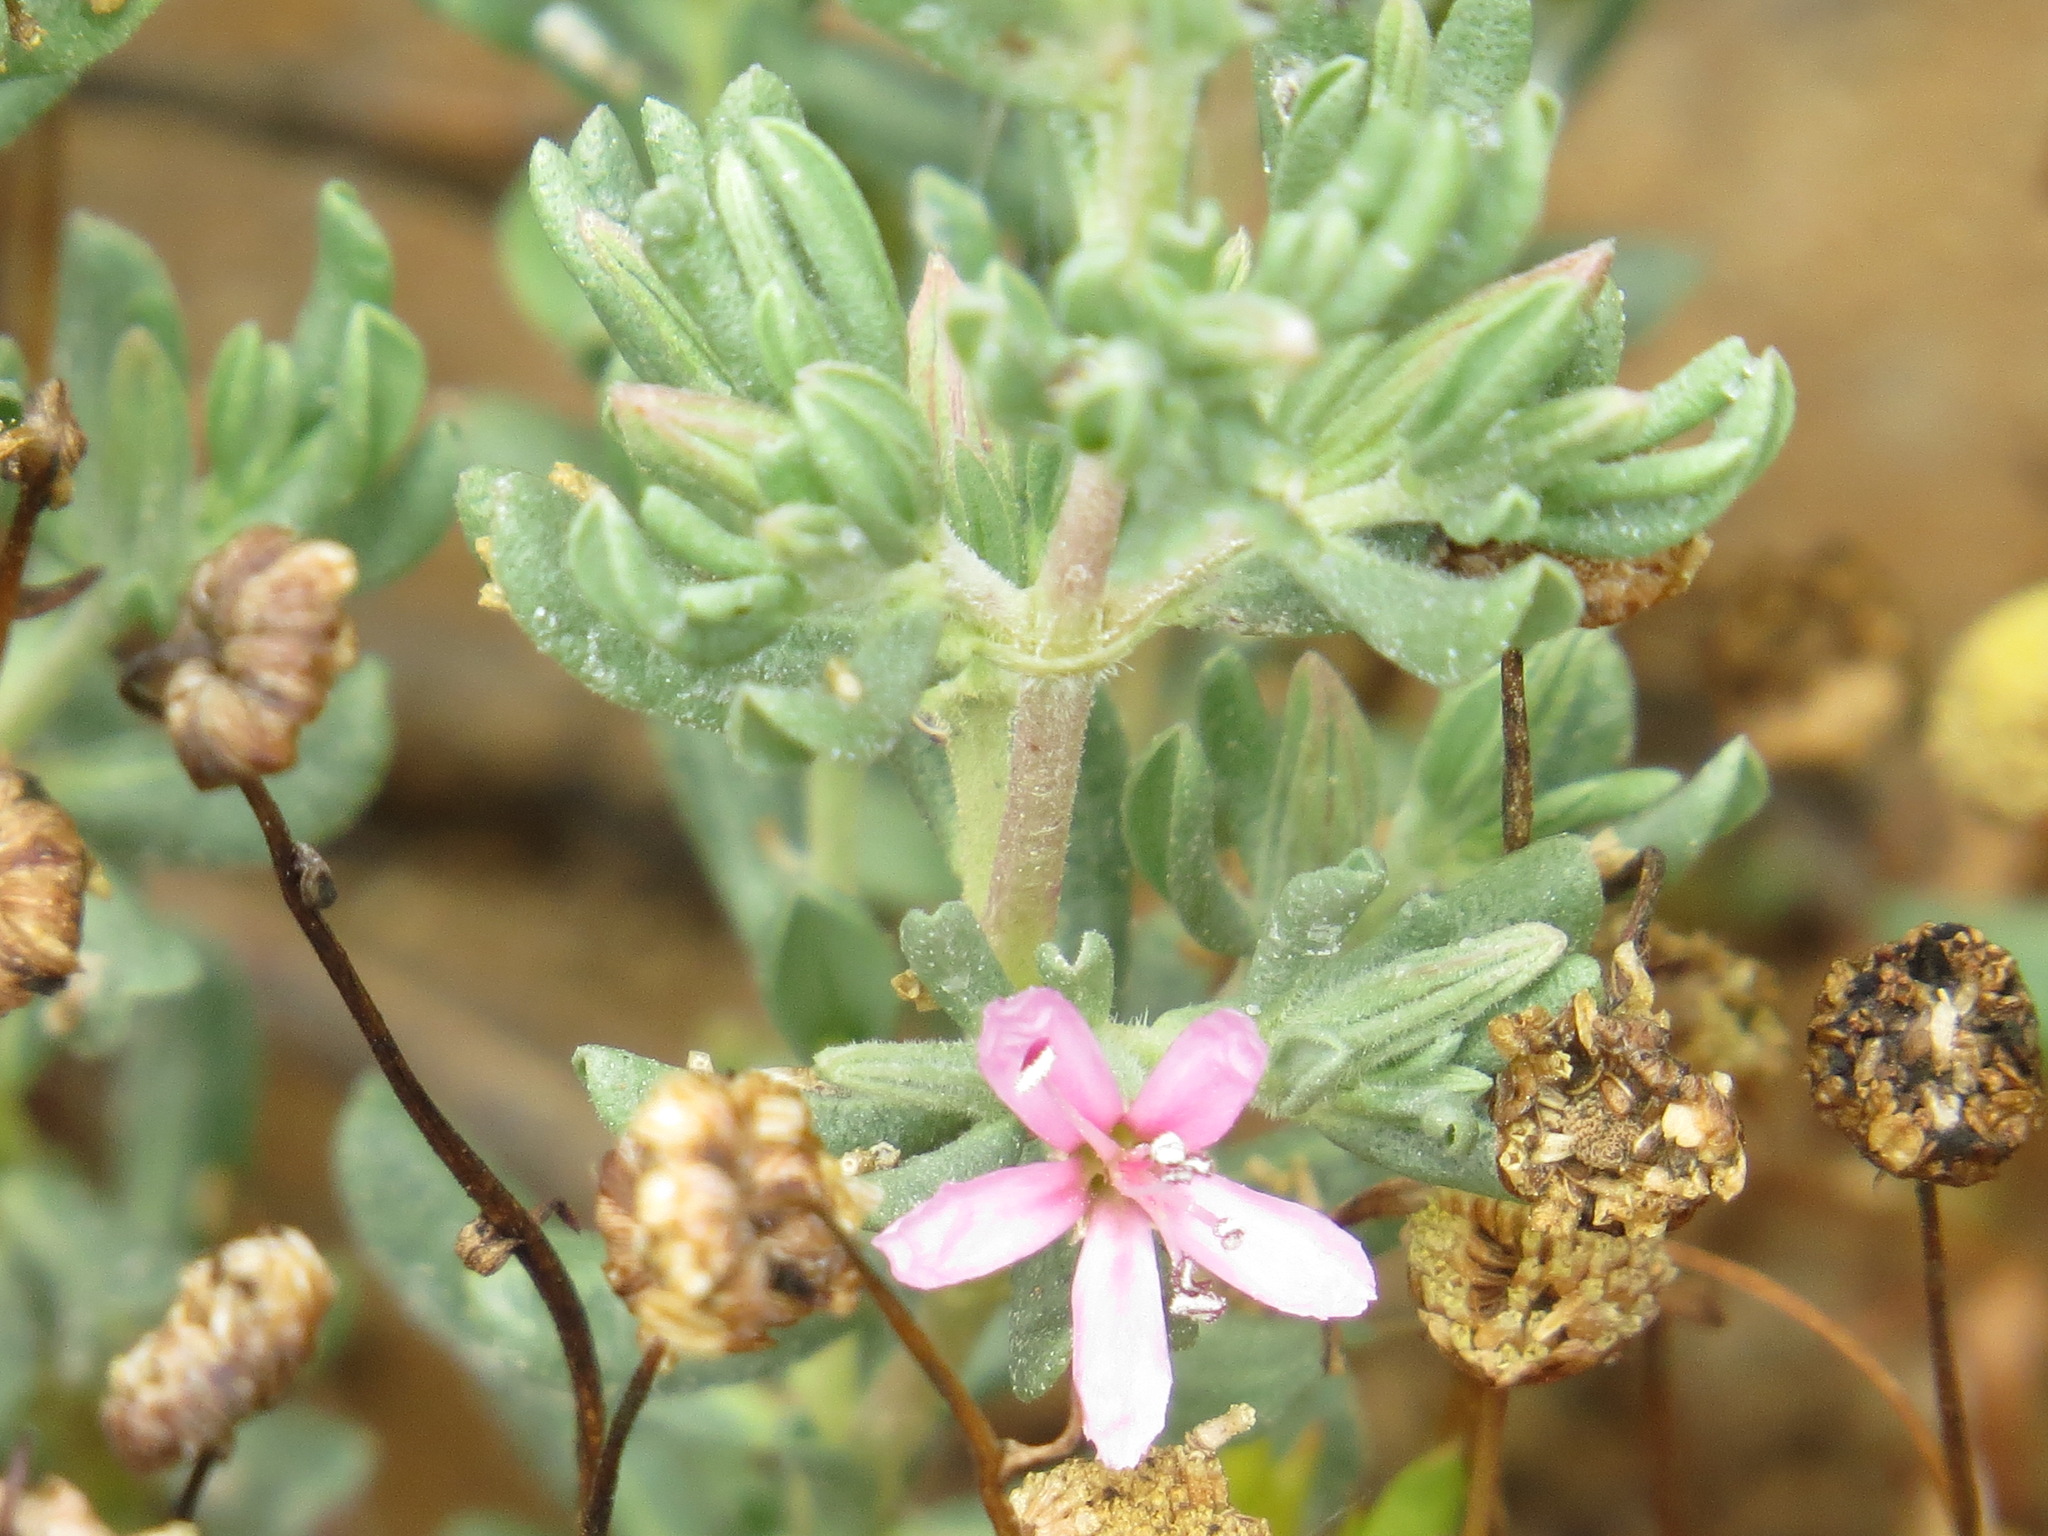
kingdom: Plantae
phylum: Tracheophyta
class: Magnoliopsida
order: Caryophyllales
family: Frankeniaceae
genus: Frankenia
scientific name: Frankenia salina
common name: Alkali seaheath
